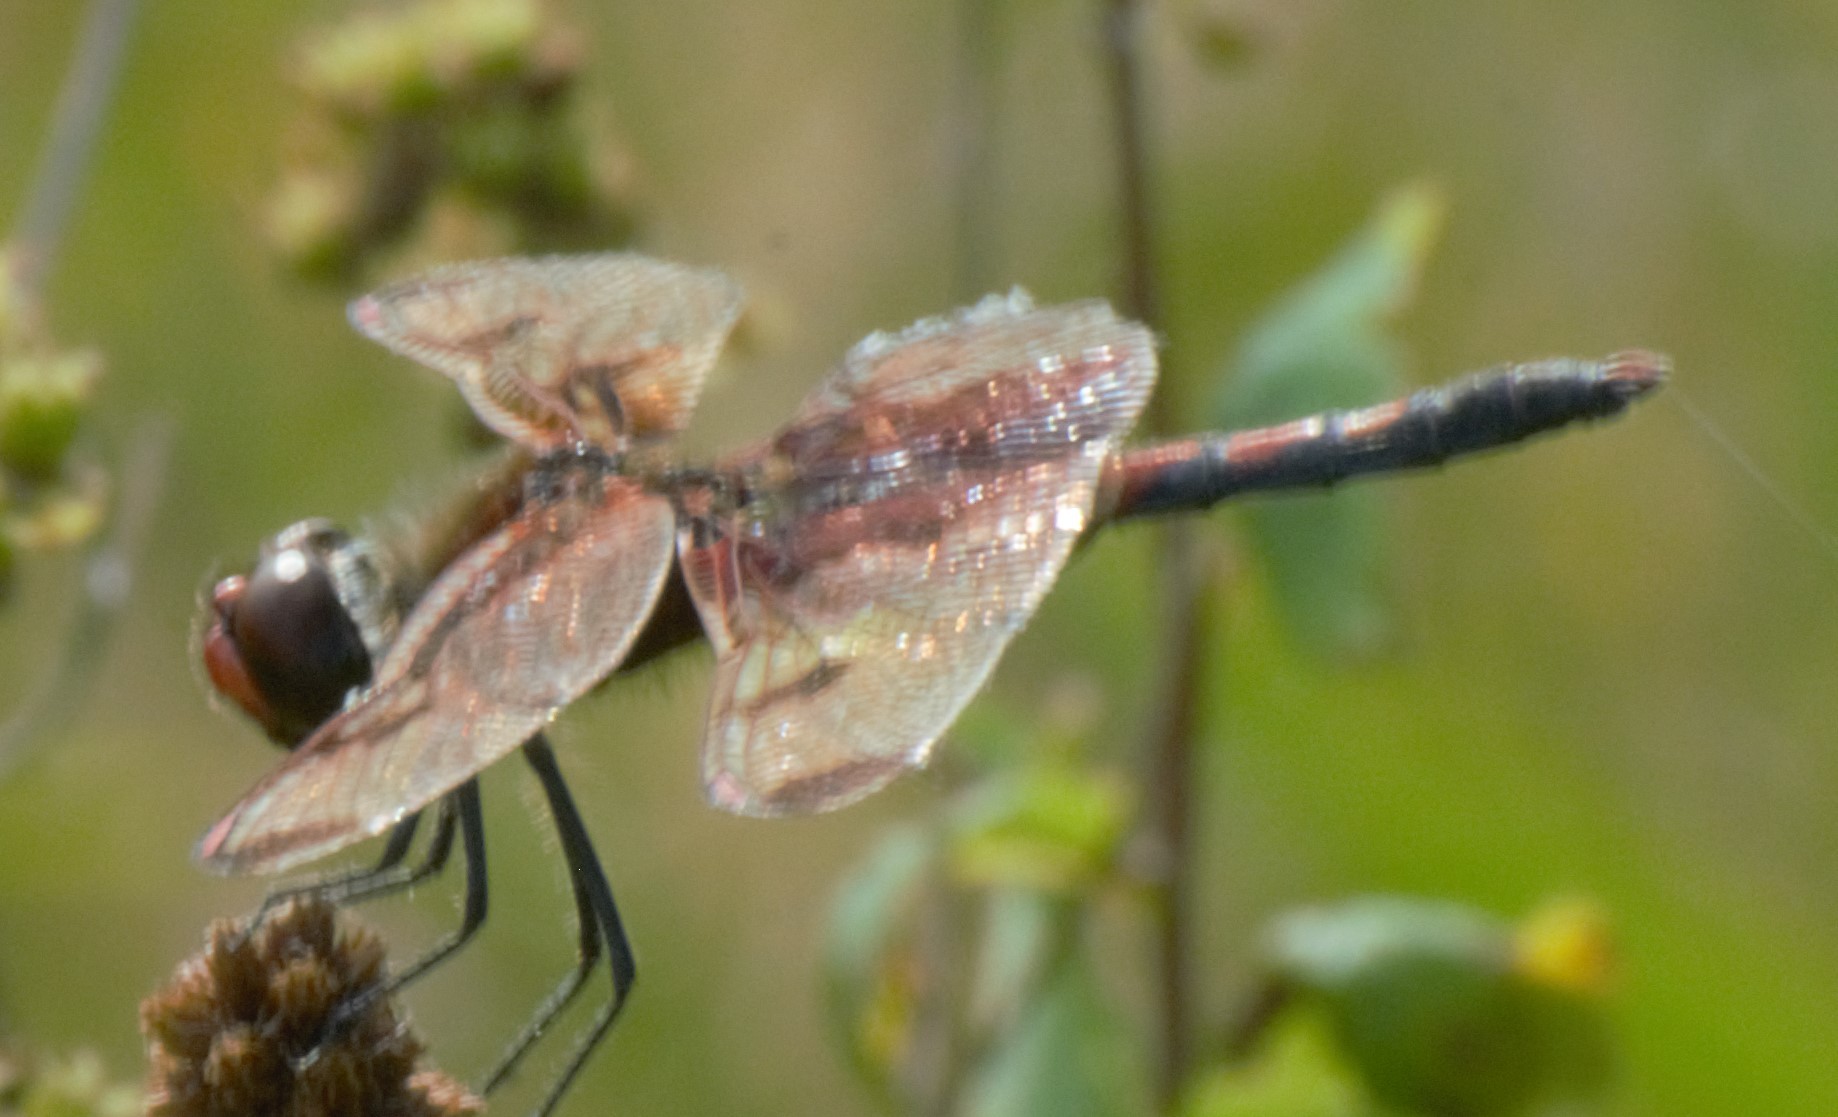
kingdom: Animalia
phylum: Arthropoda
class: Insecta
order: Odonata
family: Libellulidae
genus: Celithemis
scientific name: Celithemis elisa
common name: Calico pennant
